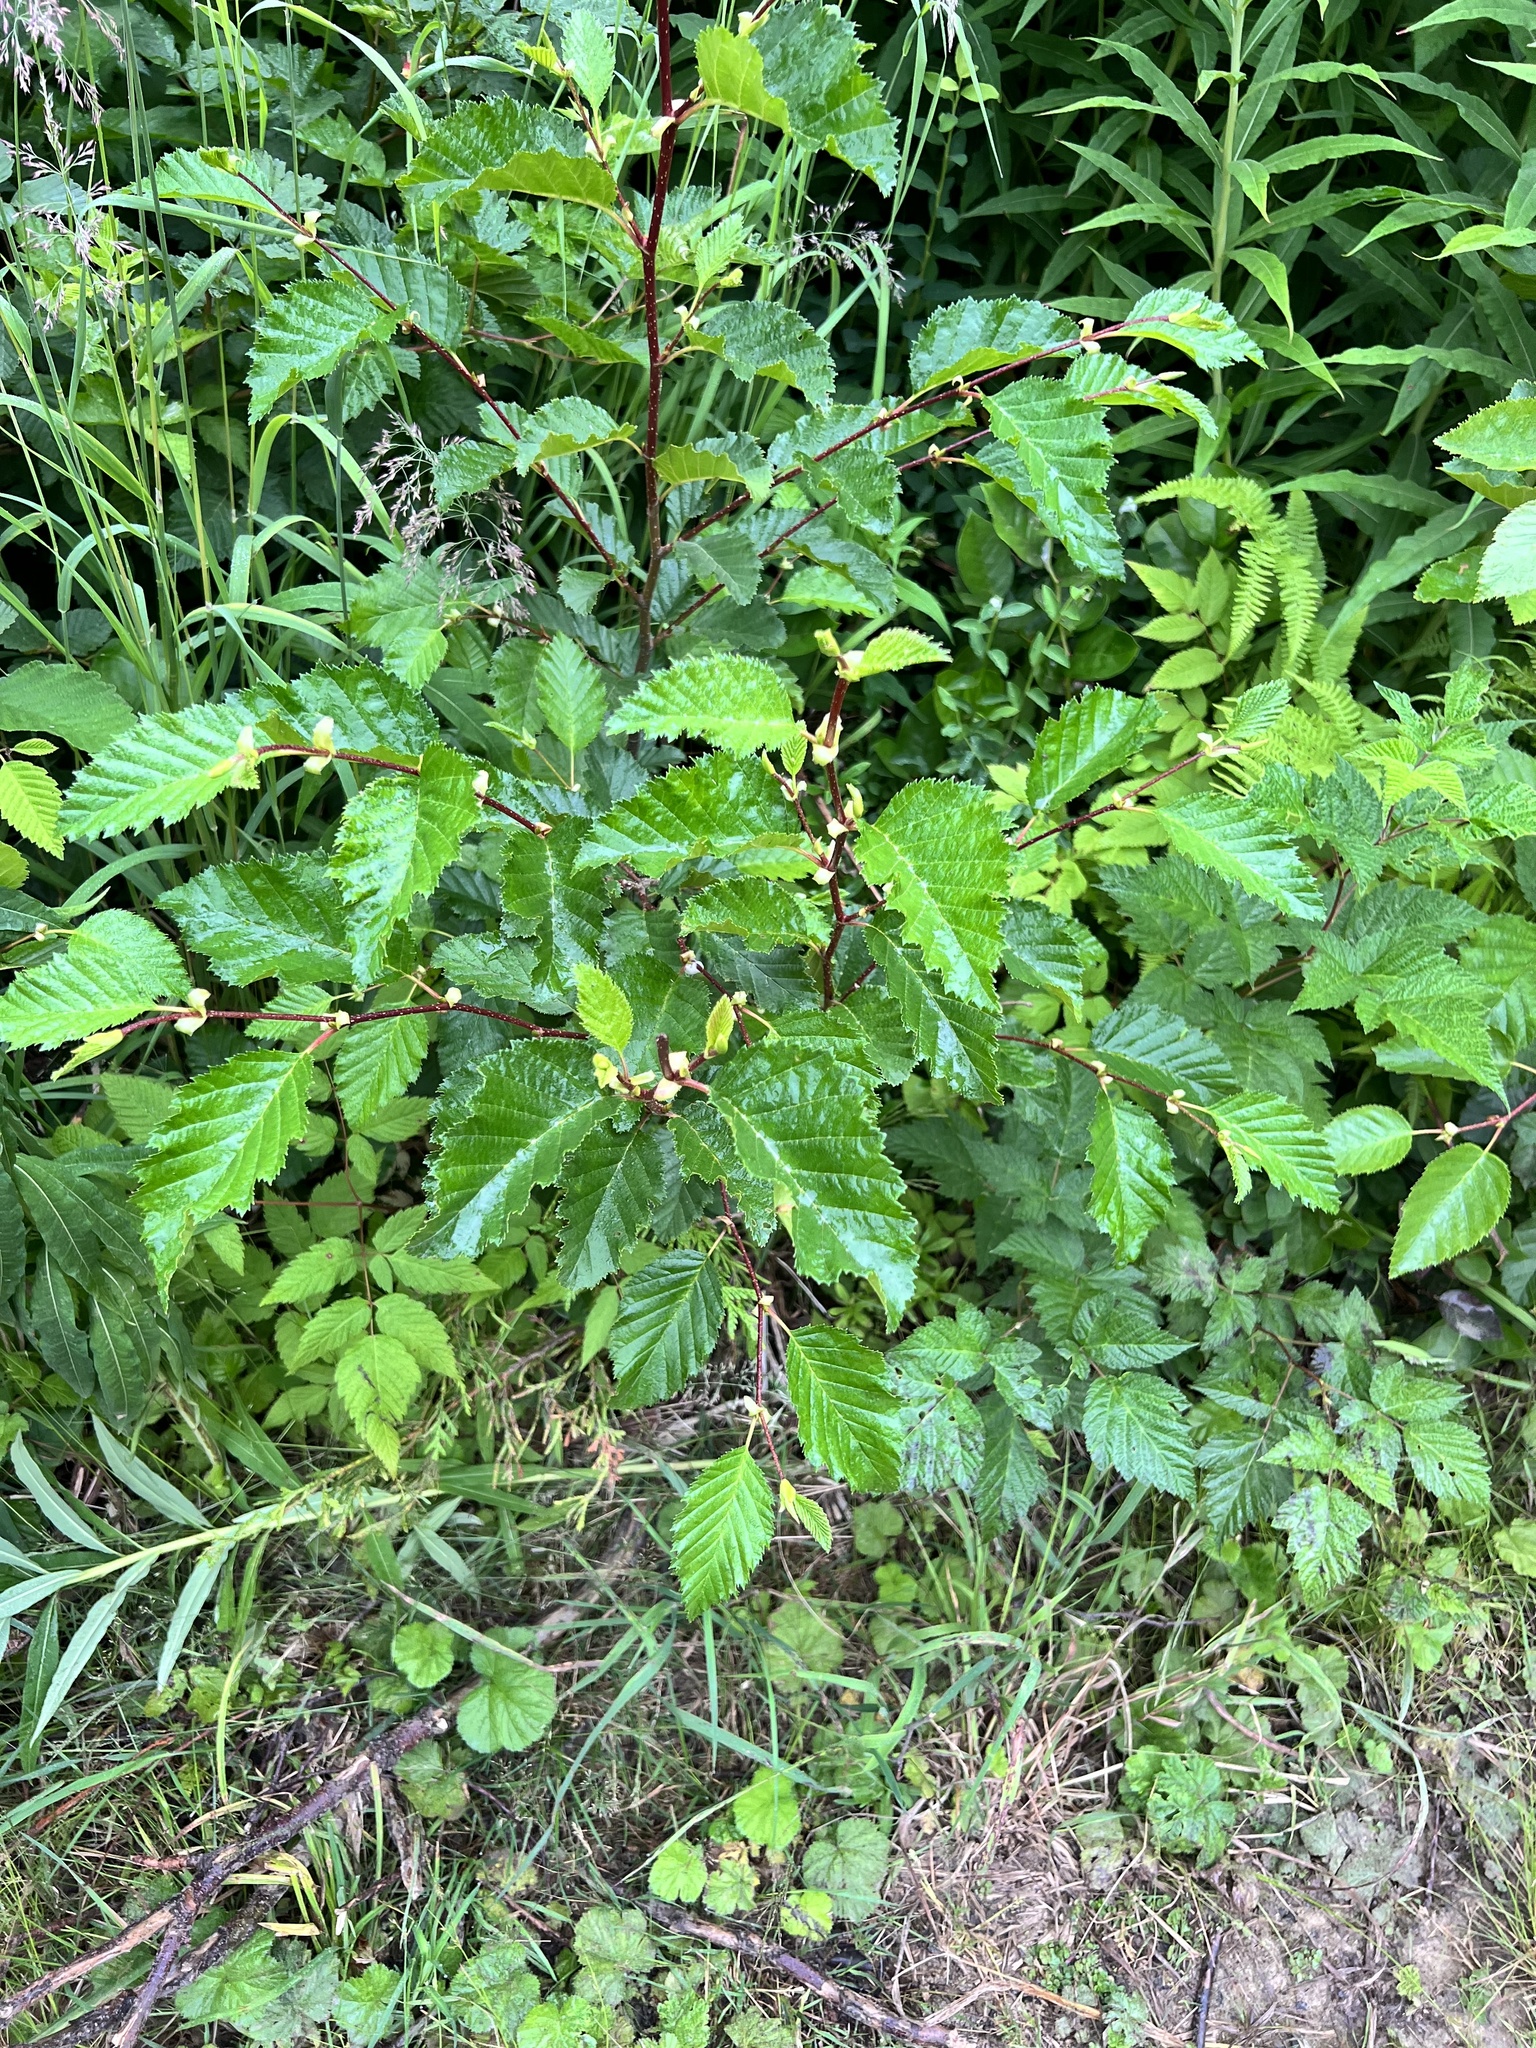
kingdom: Plantae
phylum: Tracheophyta
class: Magnoliopsida
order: Fagales
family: Betulaceae
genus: Alnus
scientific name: Alnus alnobetula
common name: Green alder
